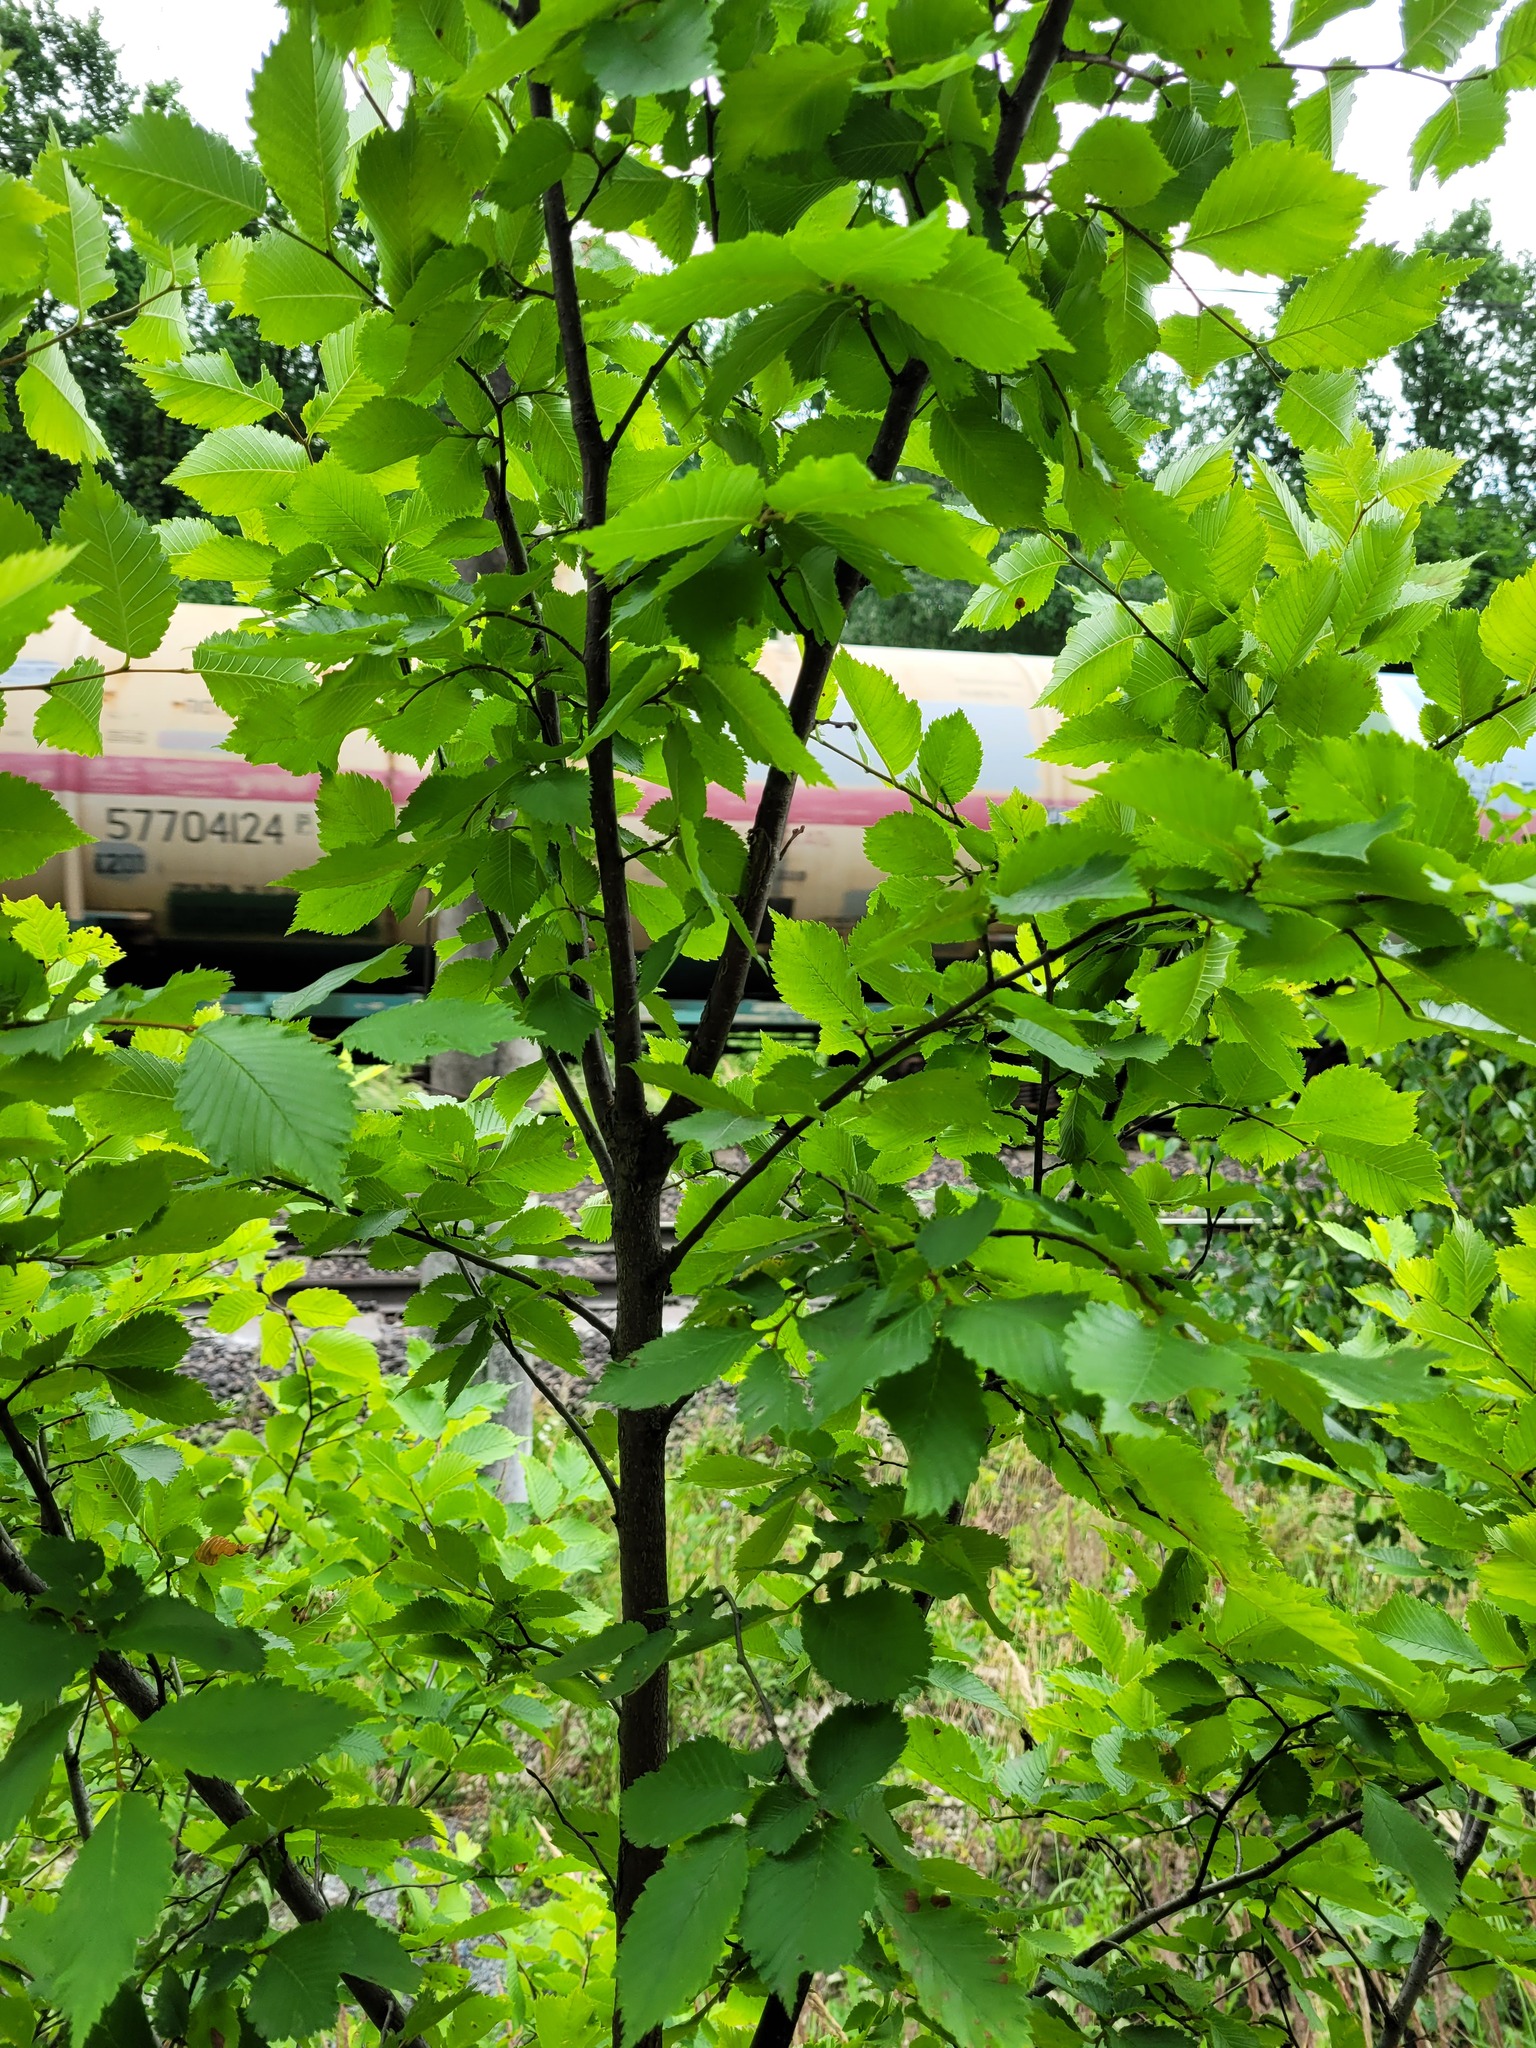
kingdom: Plantae
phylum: Tracheophyta
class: Magnoliopsida
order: Rosales
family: Ulmaceae
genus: Ulmus
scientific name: Ulmus laevis
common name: European white-elm
